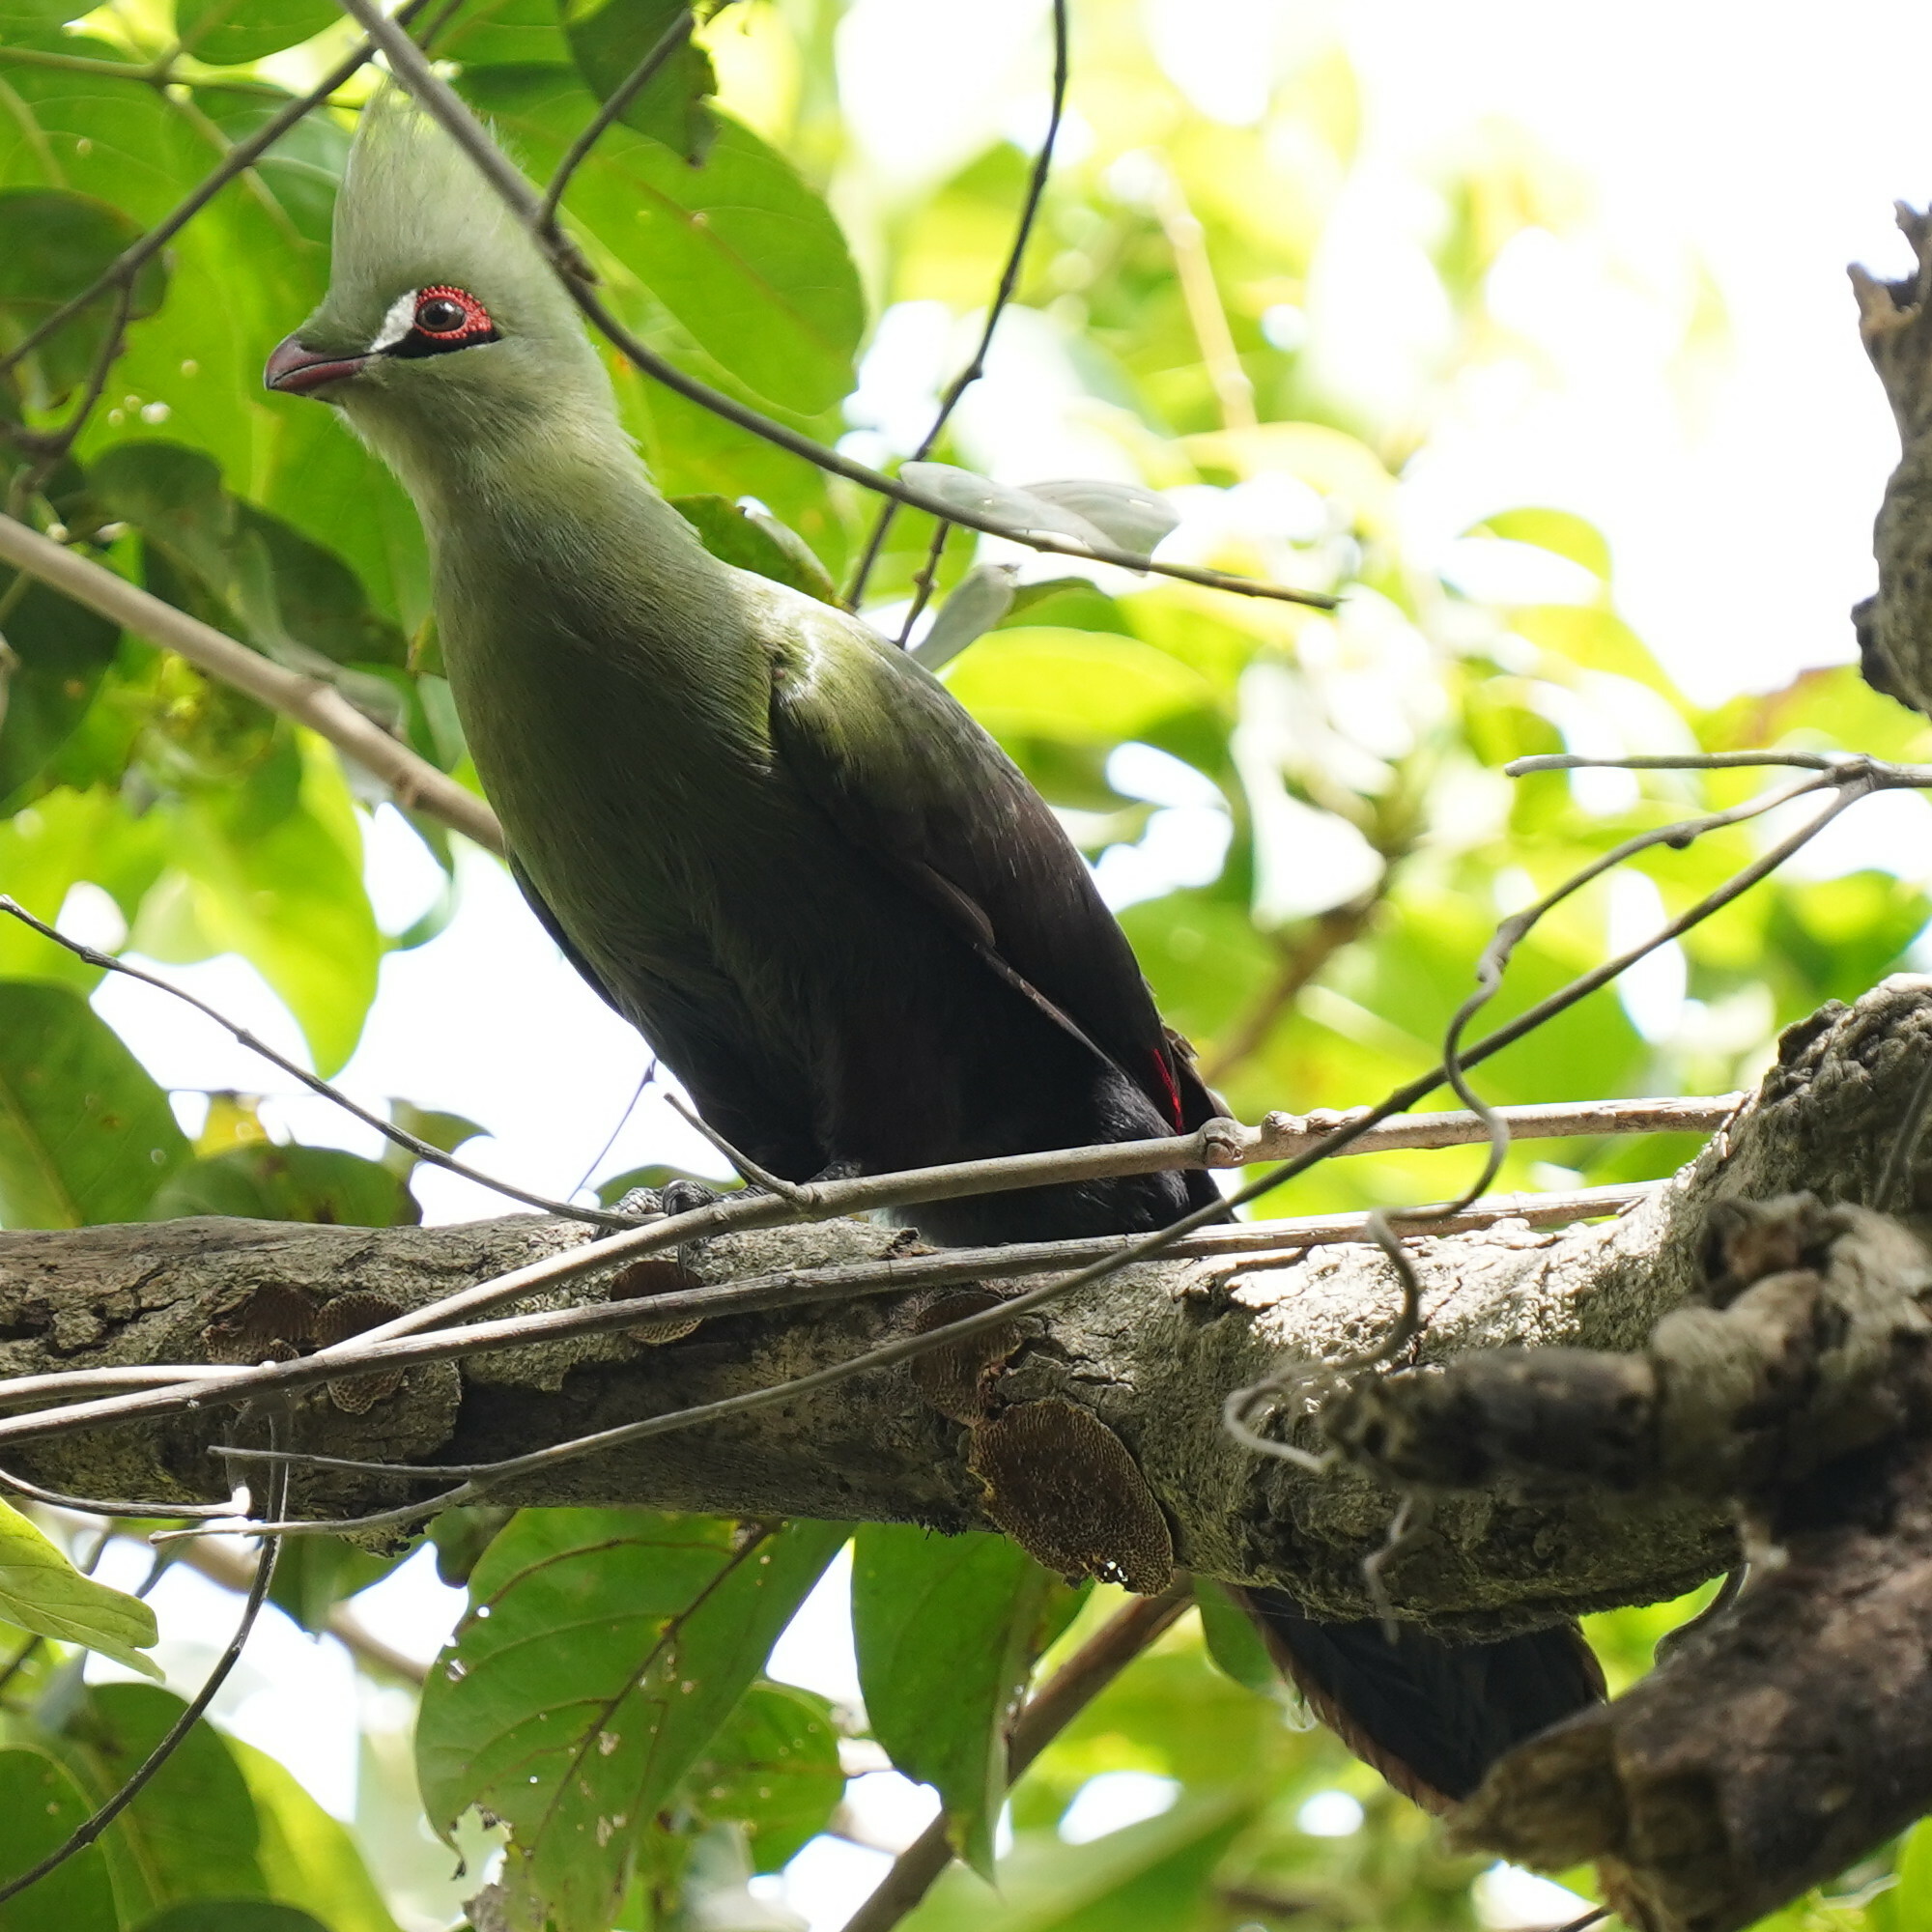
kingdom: Animalia
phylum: Chordata
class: Aves
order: Musophagiformes
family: Musophagidae
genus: Tauraco
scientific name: Tauraco persa
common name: Guinea turaco
